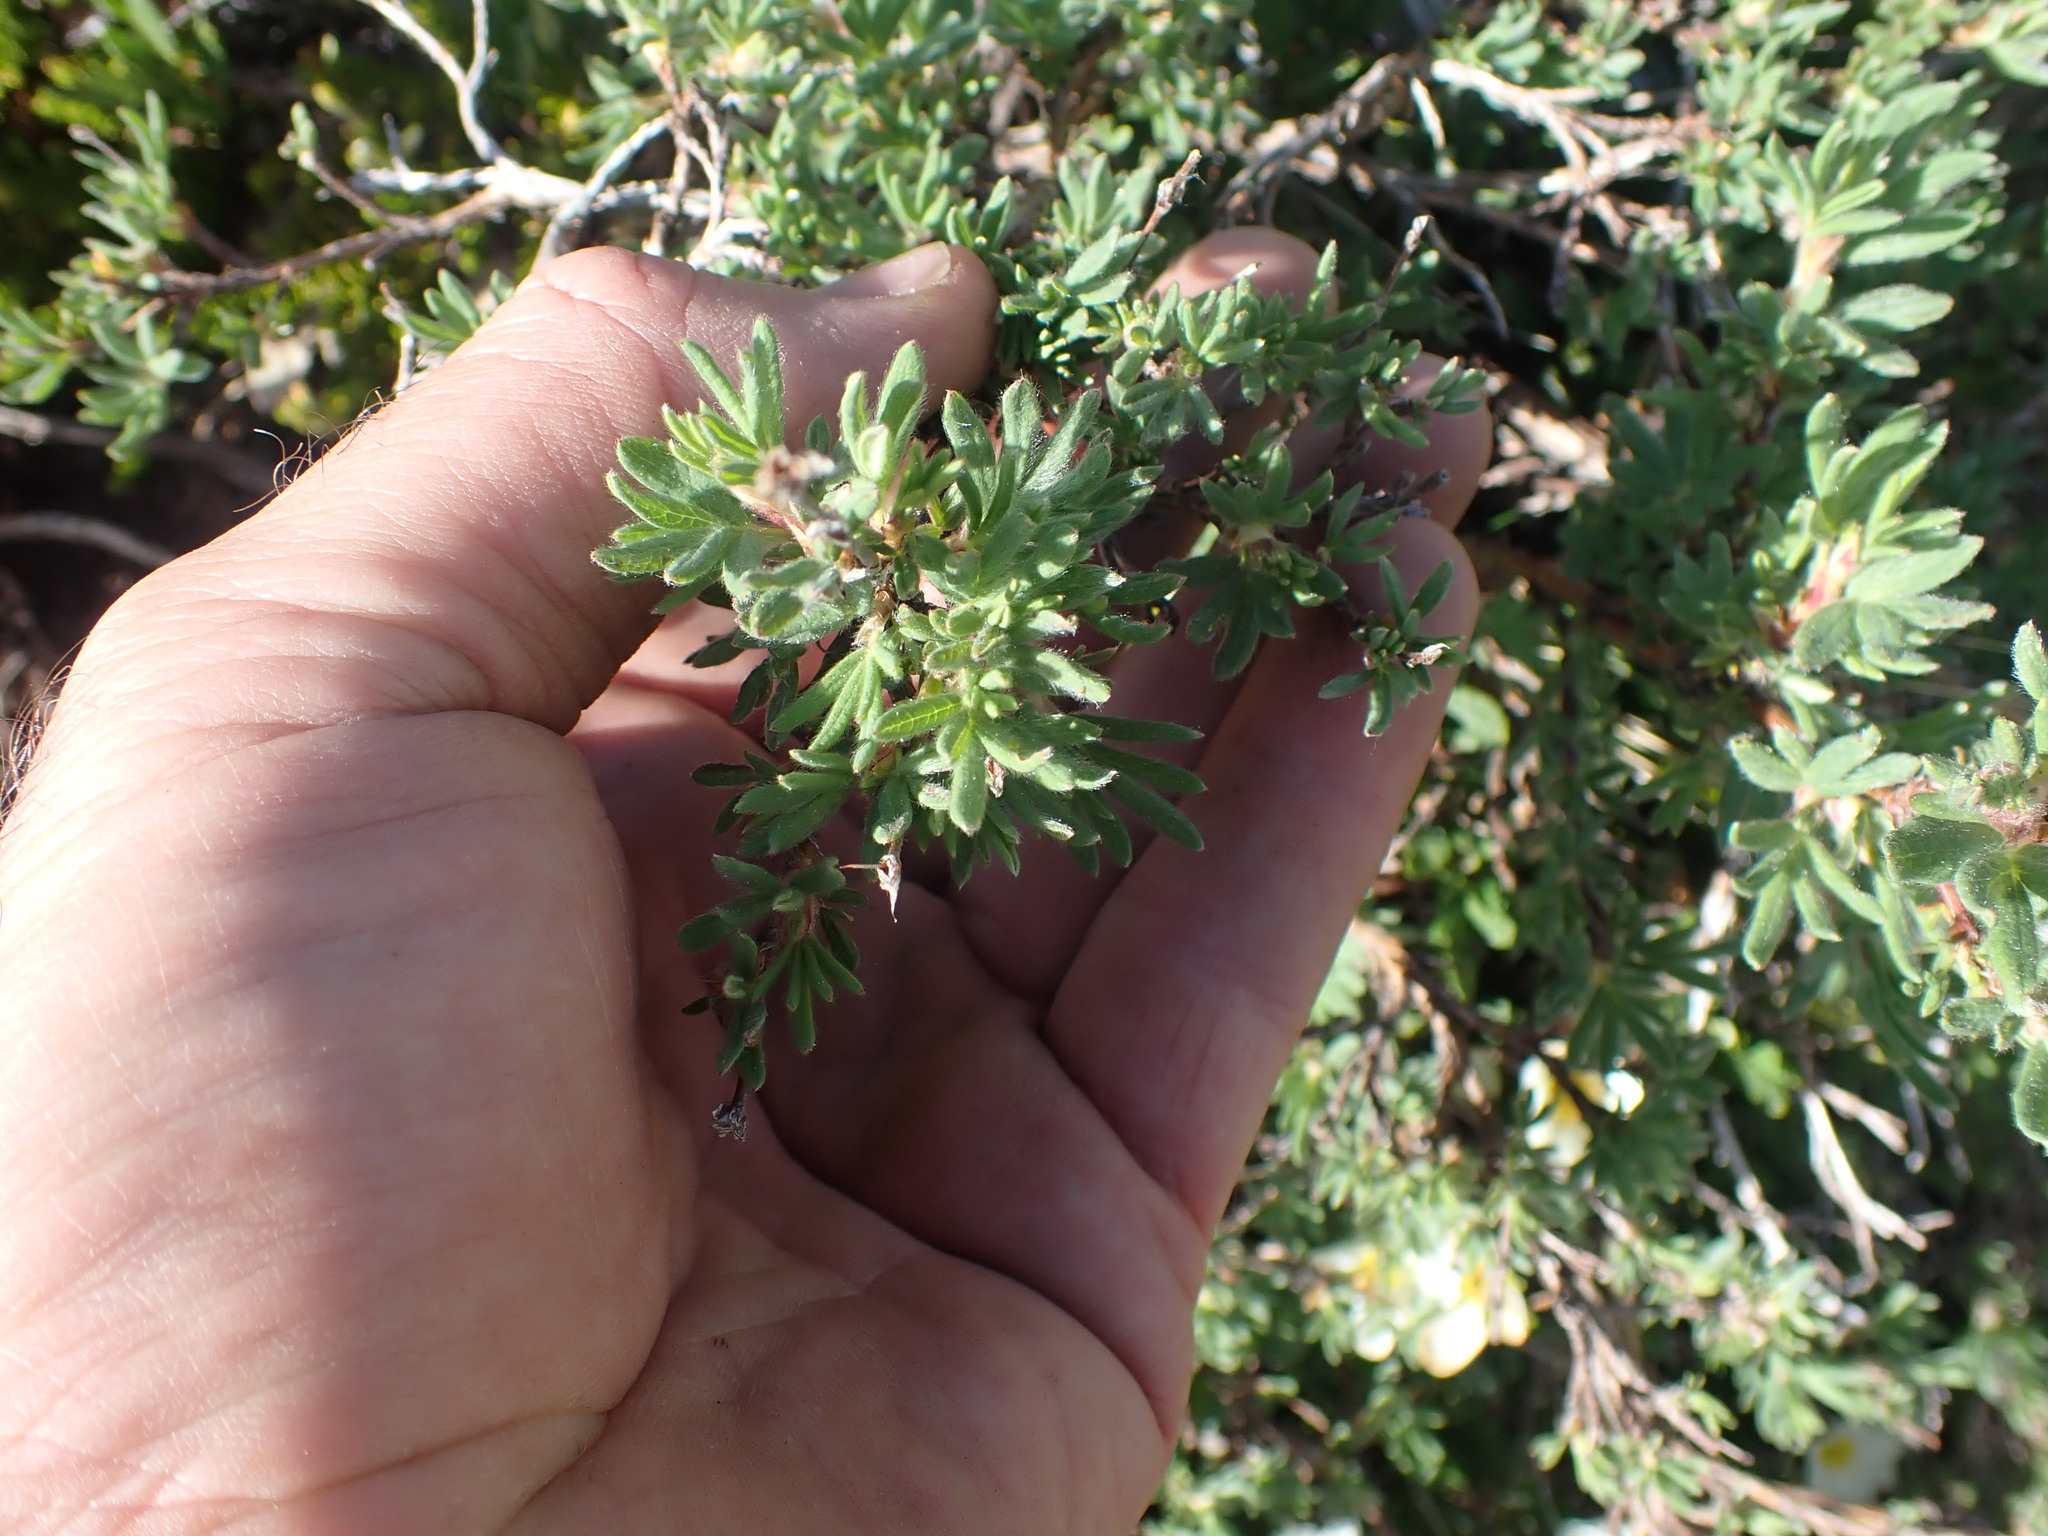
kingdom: Plantae
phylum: Tracheophyta
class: Magnoliopsida
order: Rosales
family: Rosaceae
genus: Dasiphora
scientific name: Dasiphora fruticosa
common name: Shrubby cinquefoil
